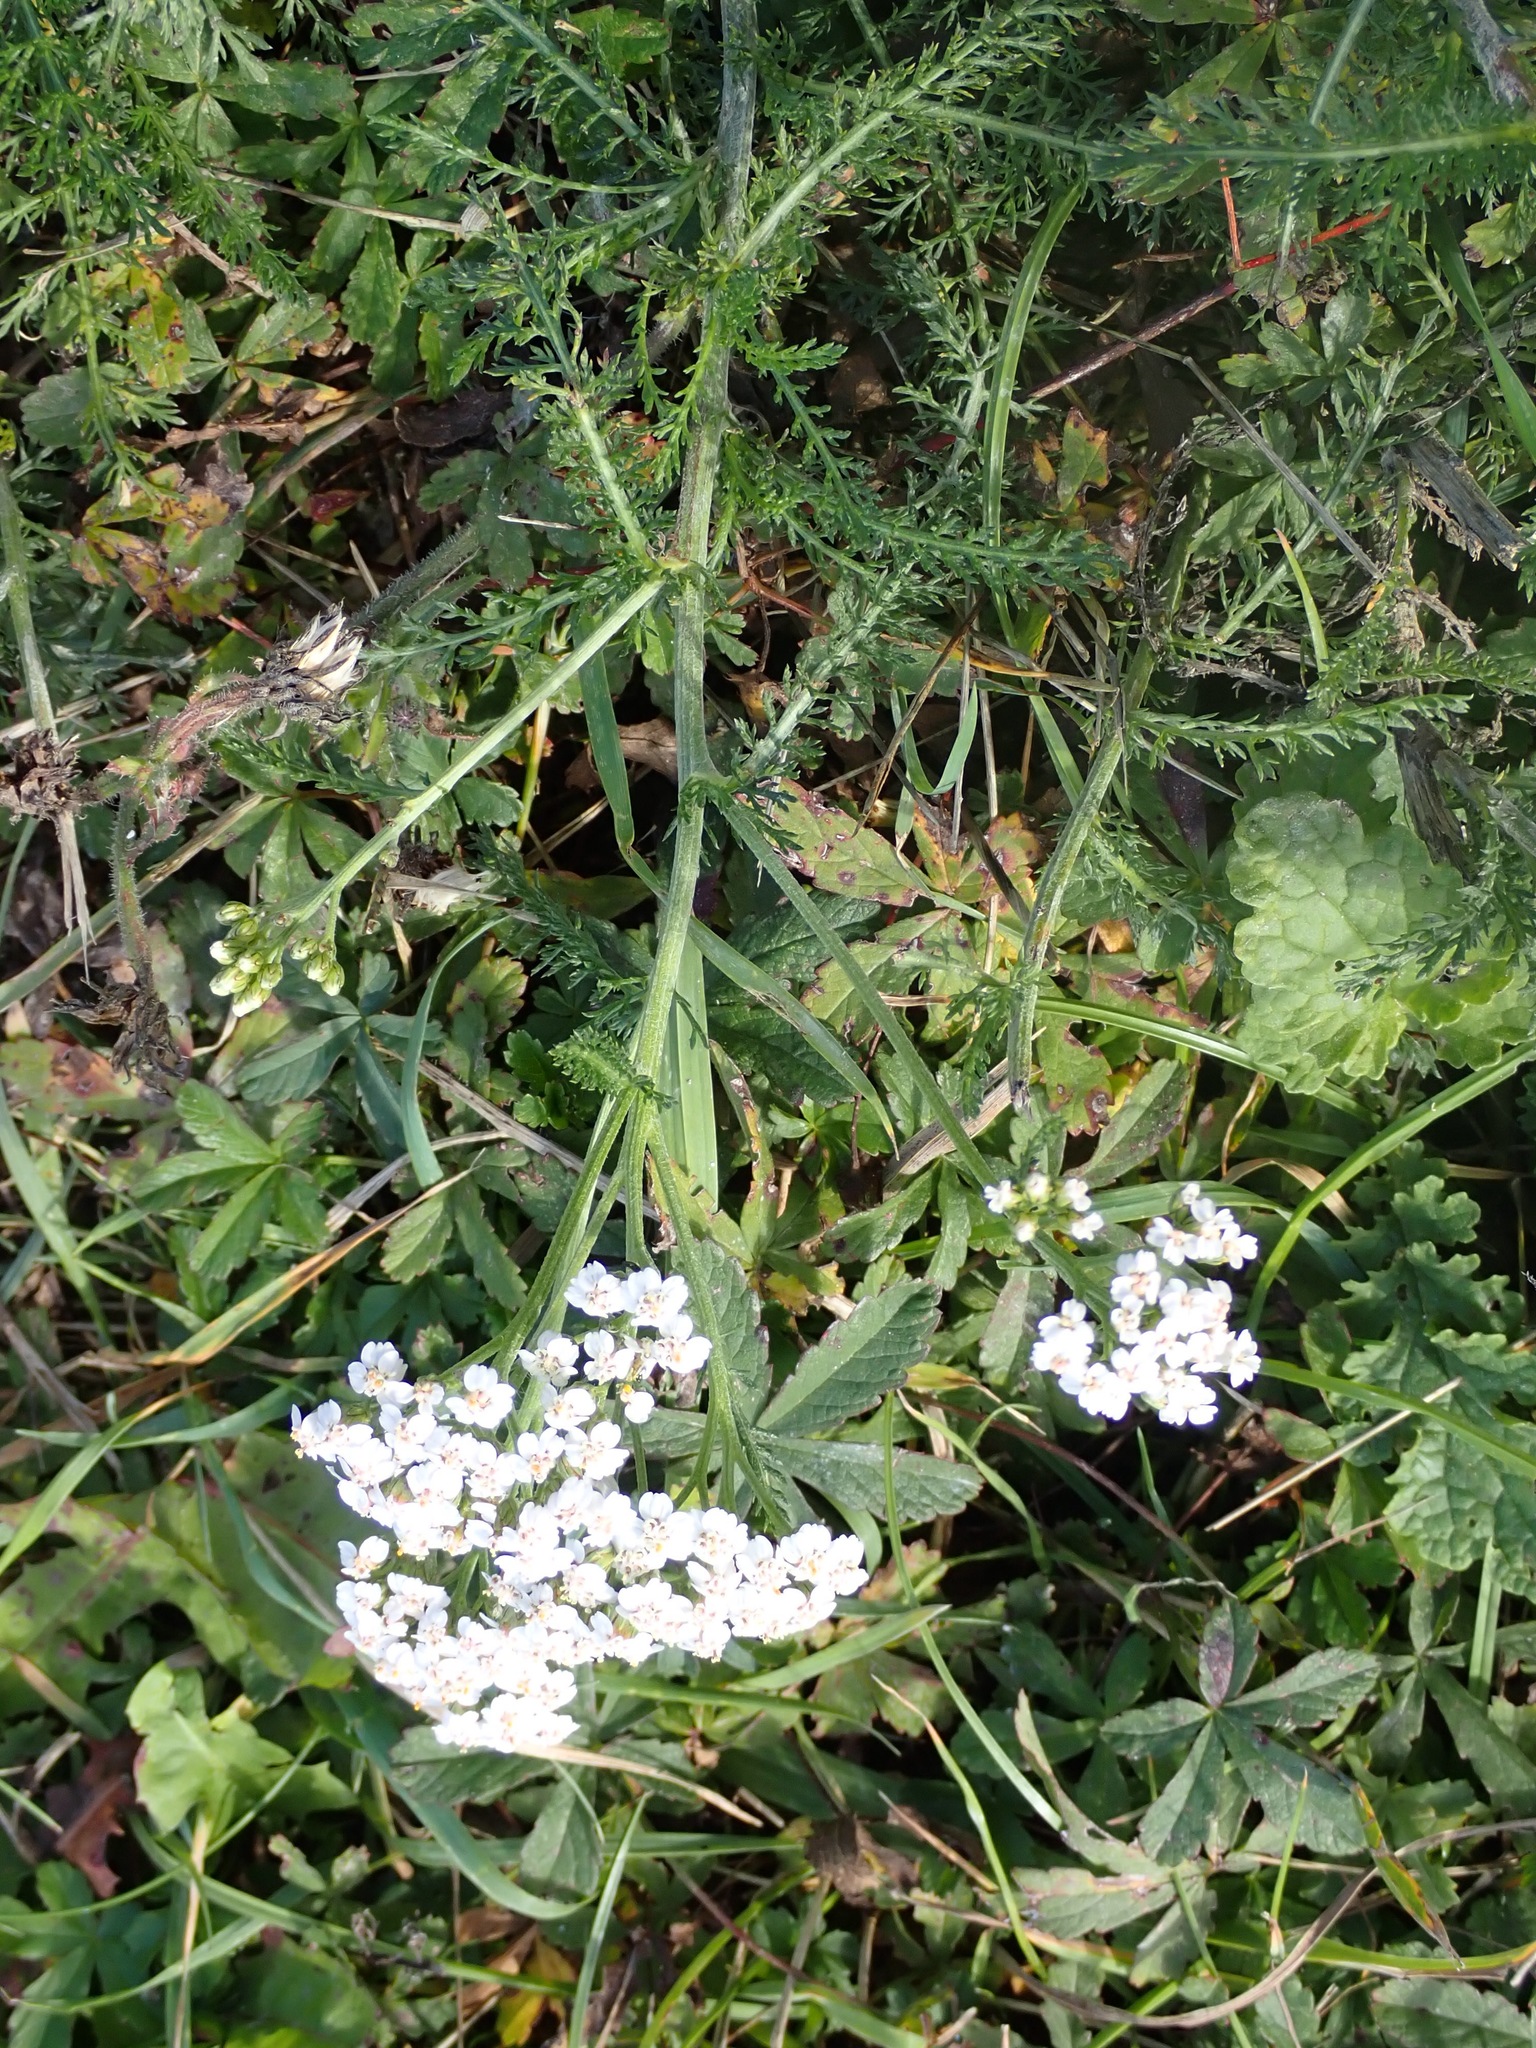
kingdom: Plantae
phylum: Tracheophyta
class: Magnoliopsida
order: Asterales
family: Asteraceae
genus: Achillea
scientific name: Achillea millefolium
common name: Yarrow
